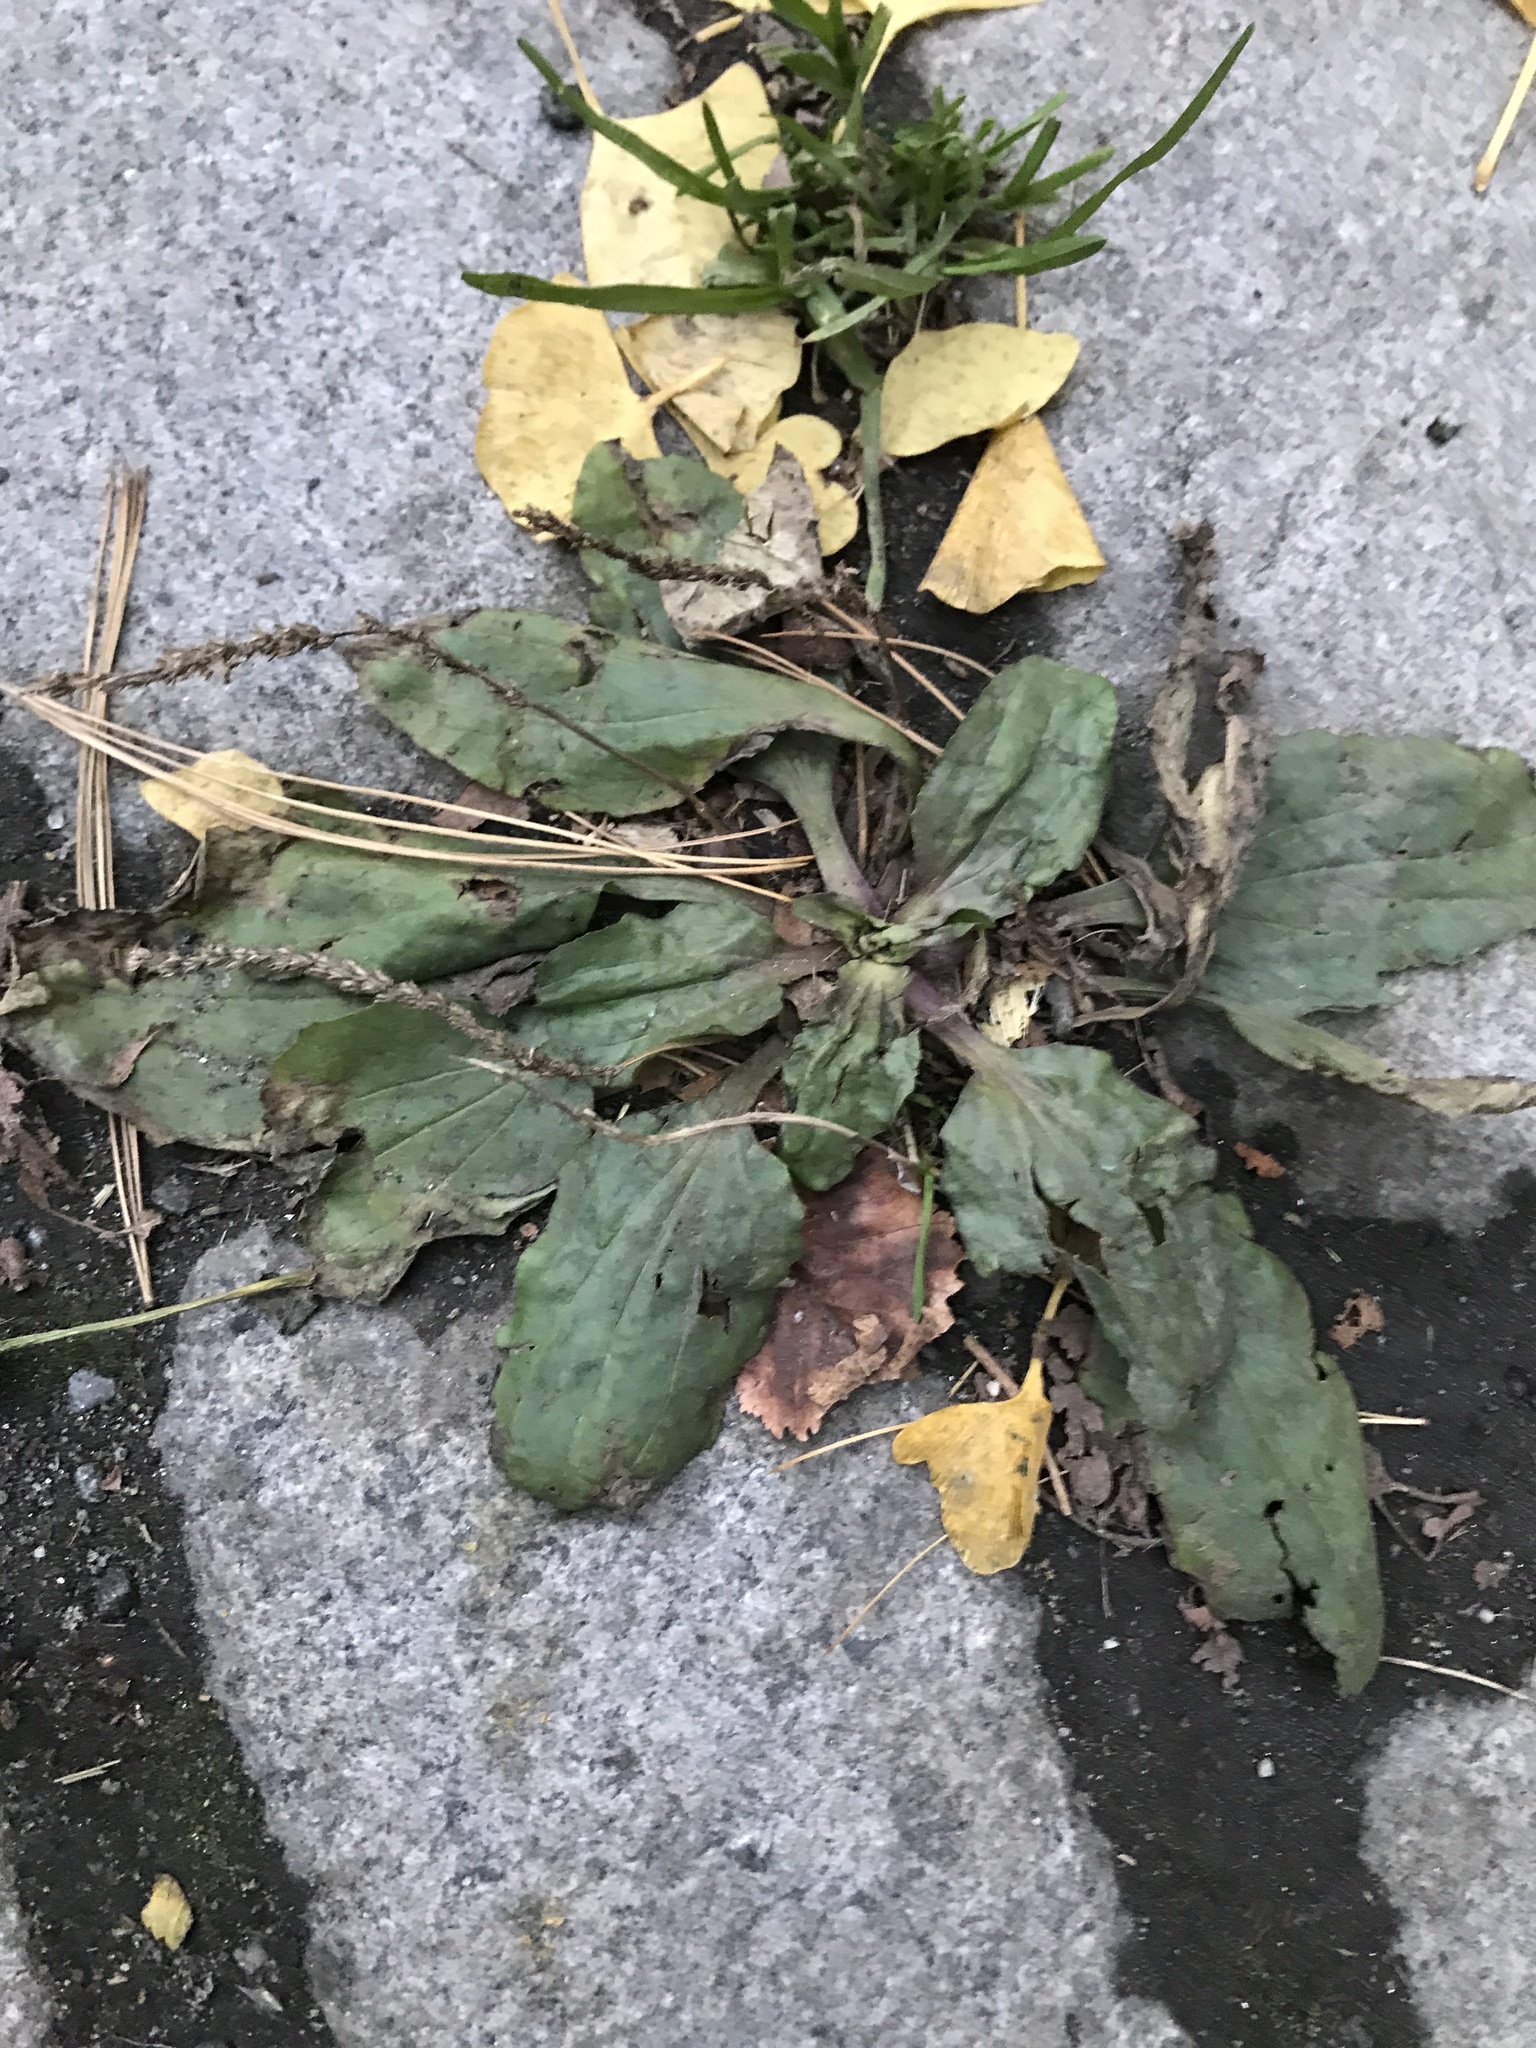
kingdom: Plantae
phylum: Tracheophyta
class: Magnoliopsida
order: Lamiales
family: Plantaginaceae
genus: Plantago
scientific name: Plantago
